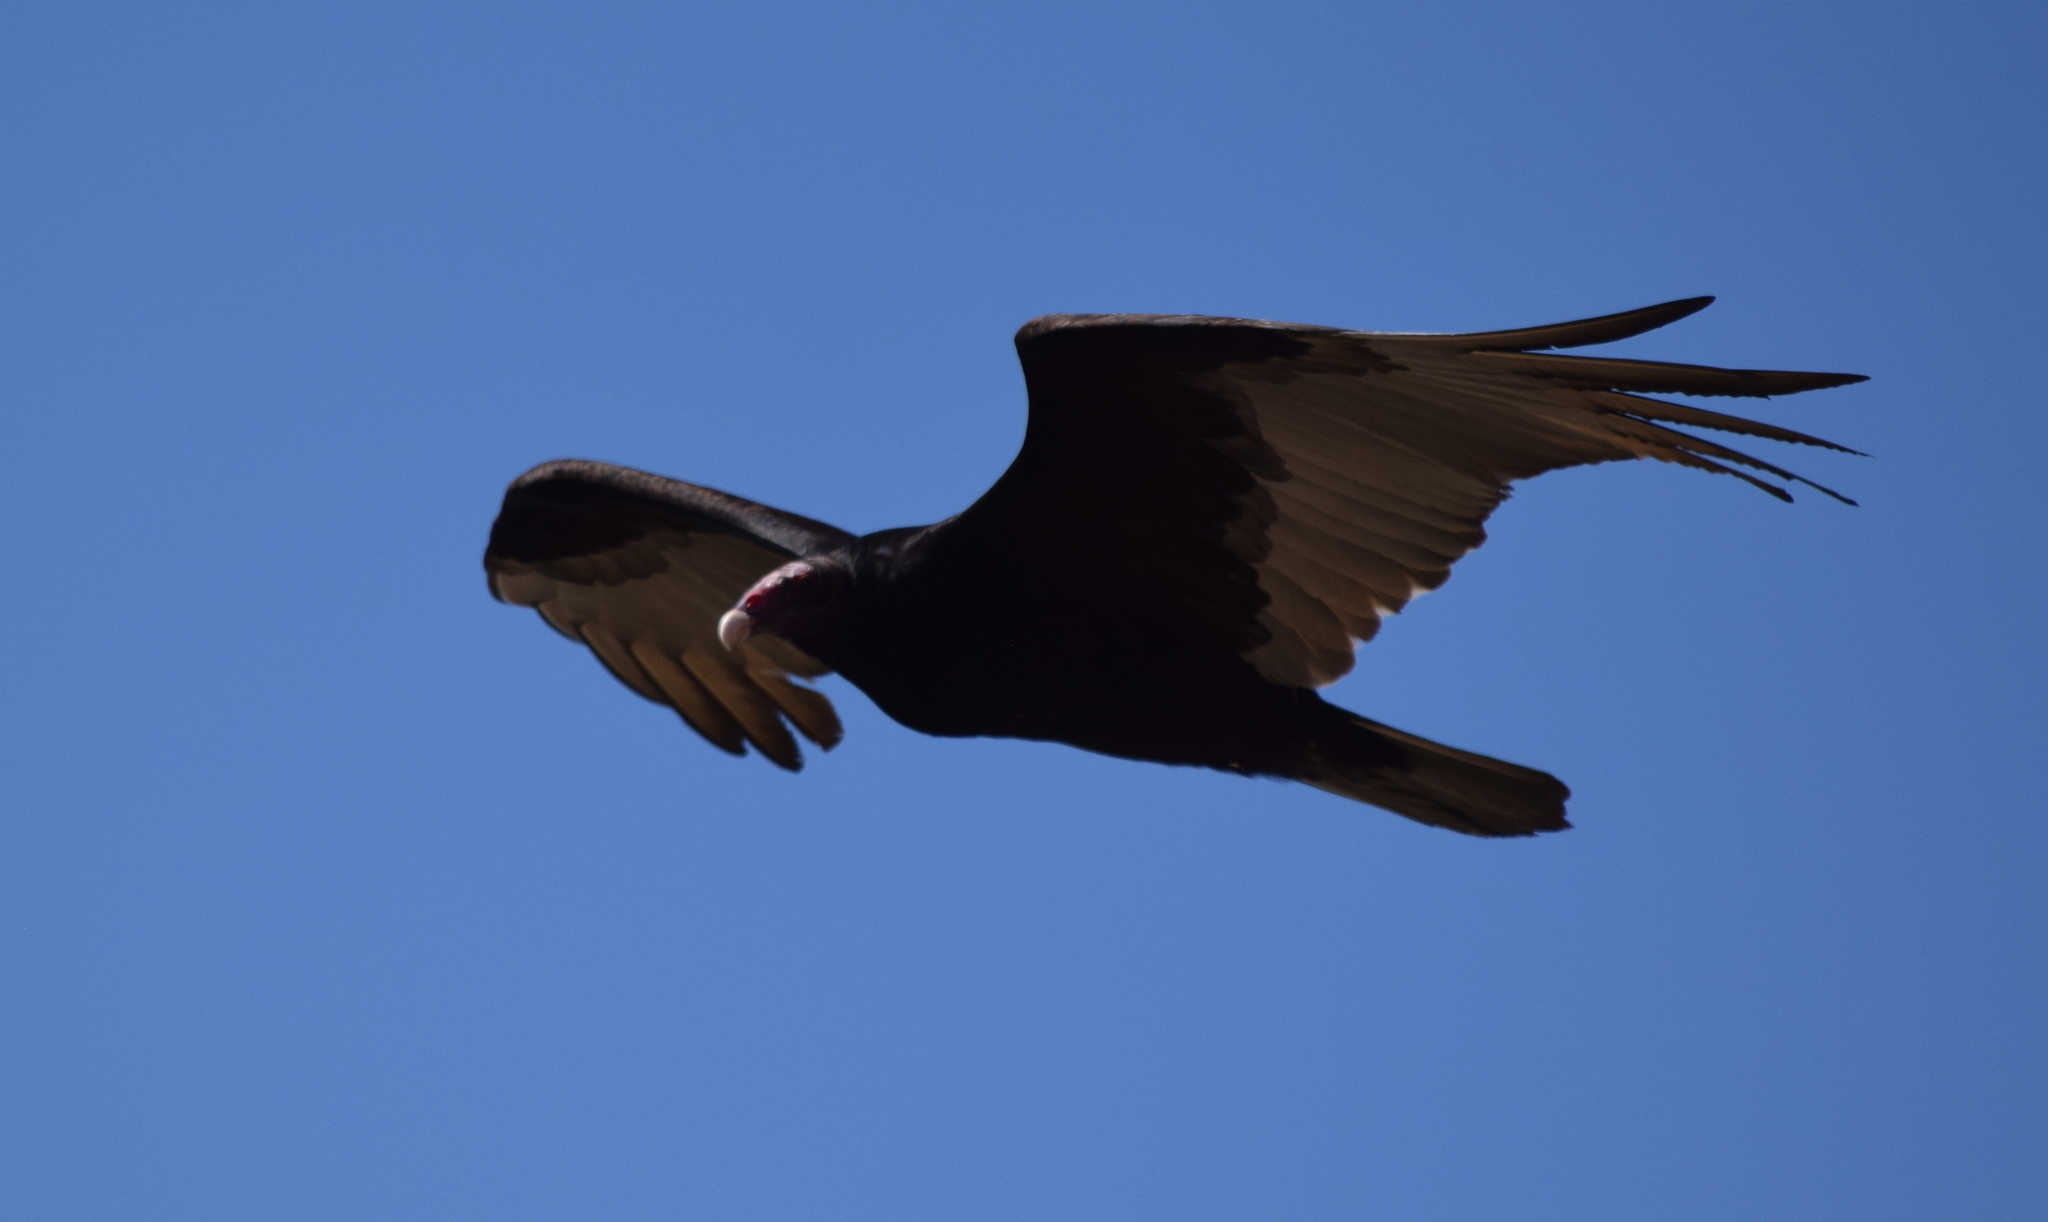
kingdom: Animalia
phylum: Chordata
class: Aves
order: Accipitriformes
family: Cathartidae
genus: Cathartes
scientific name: Cathartes aura
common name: Turkey vulture
